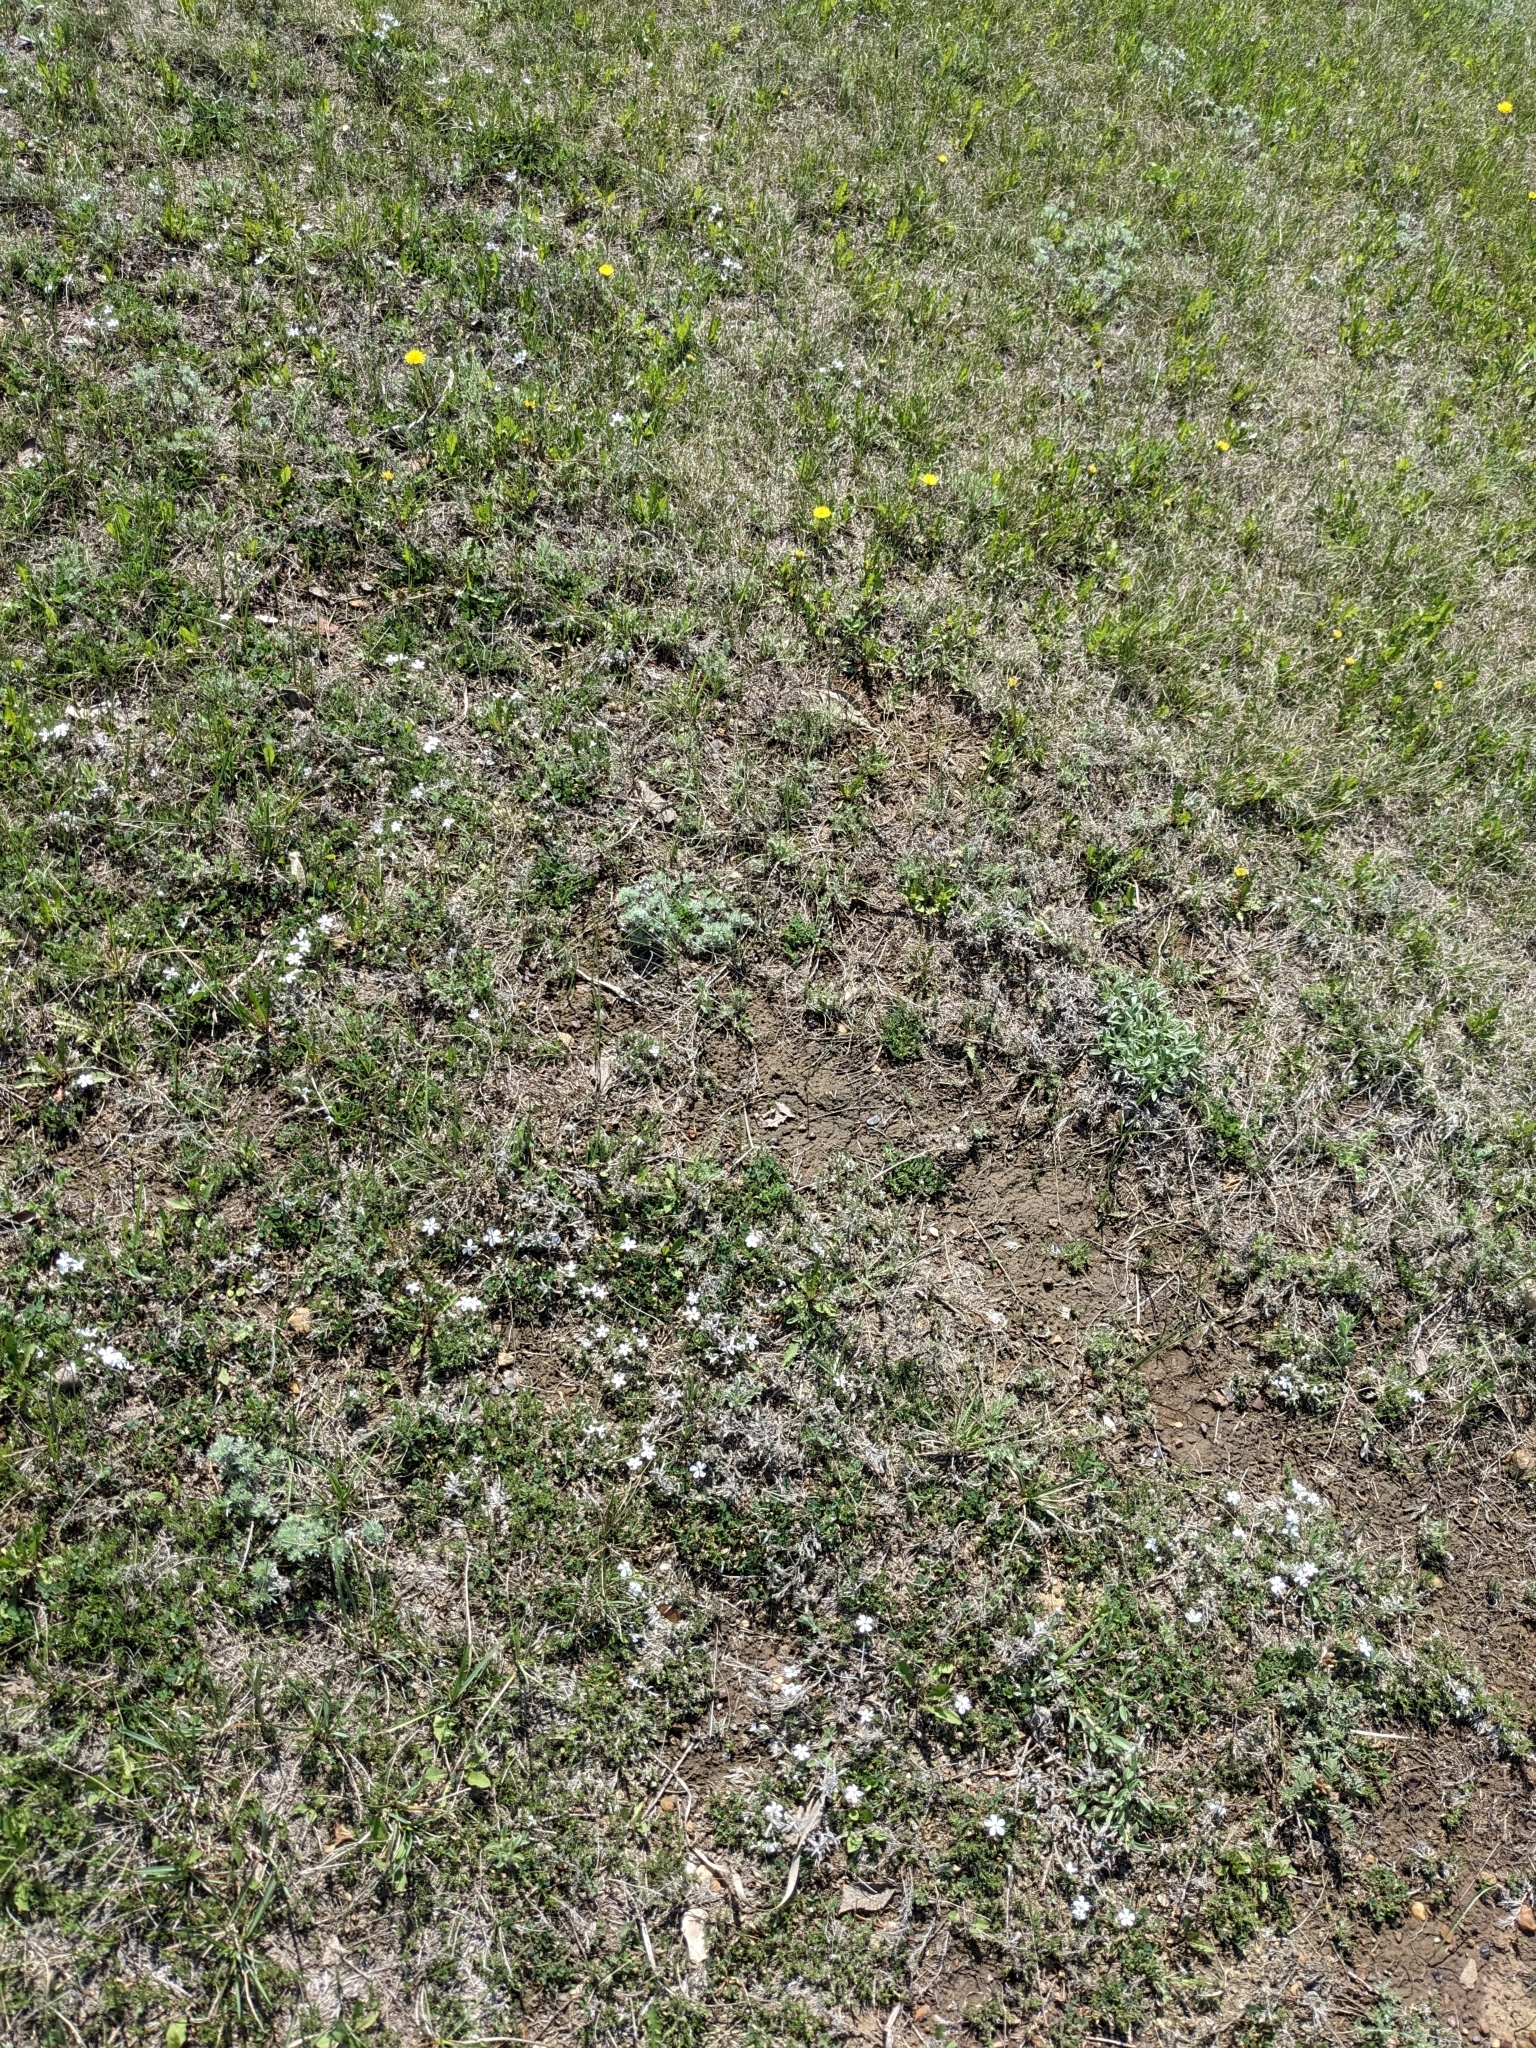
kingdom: Plantae
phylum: Tracheophyta
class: Magnoliopsida
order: Ericales
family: Polemoniaceae
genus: Phlox
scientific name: Phlox hoodii
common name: Moss phlox
